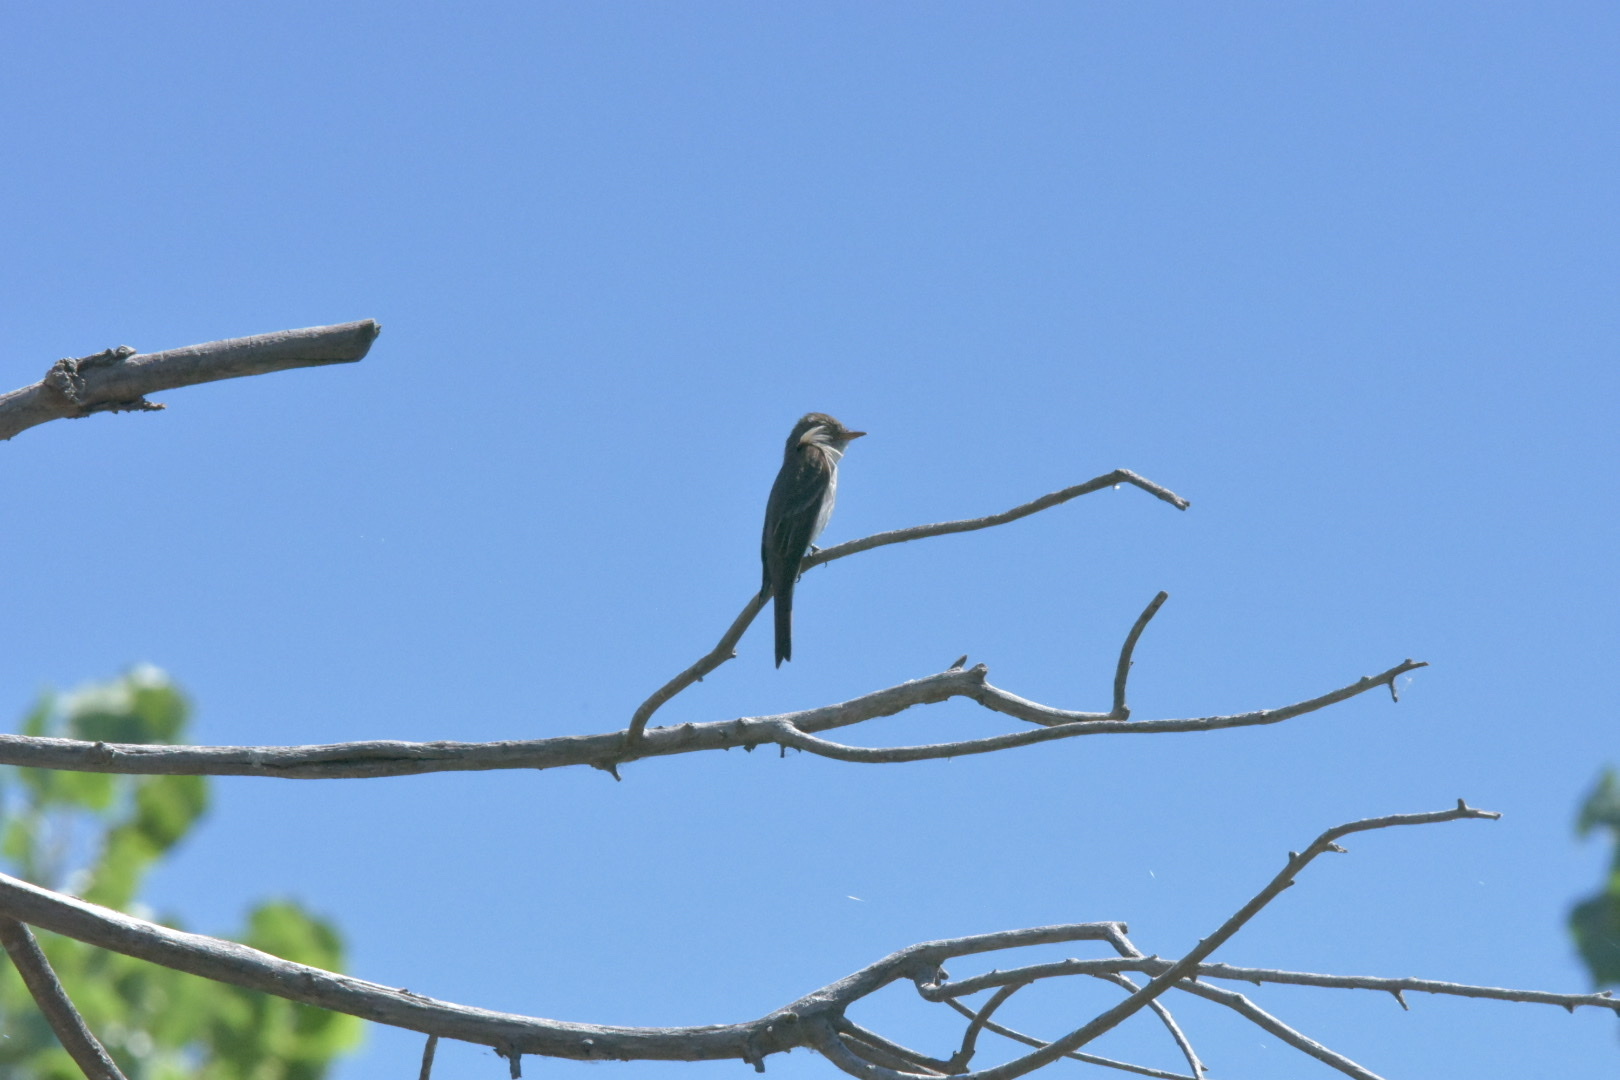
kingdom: Animalia
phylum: Chordata
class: Aves
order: Passeriformes
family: Tyrannidae
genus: Tyrannus
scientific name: Tyrannus tyrannus
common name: Eastern kingbird
